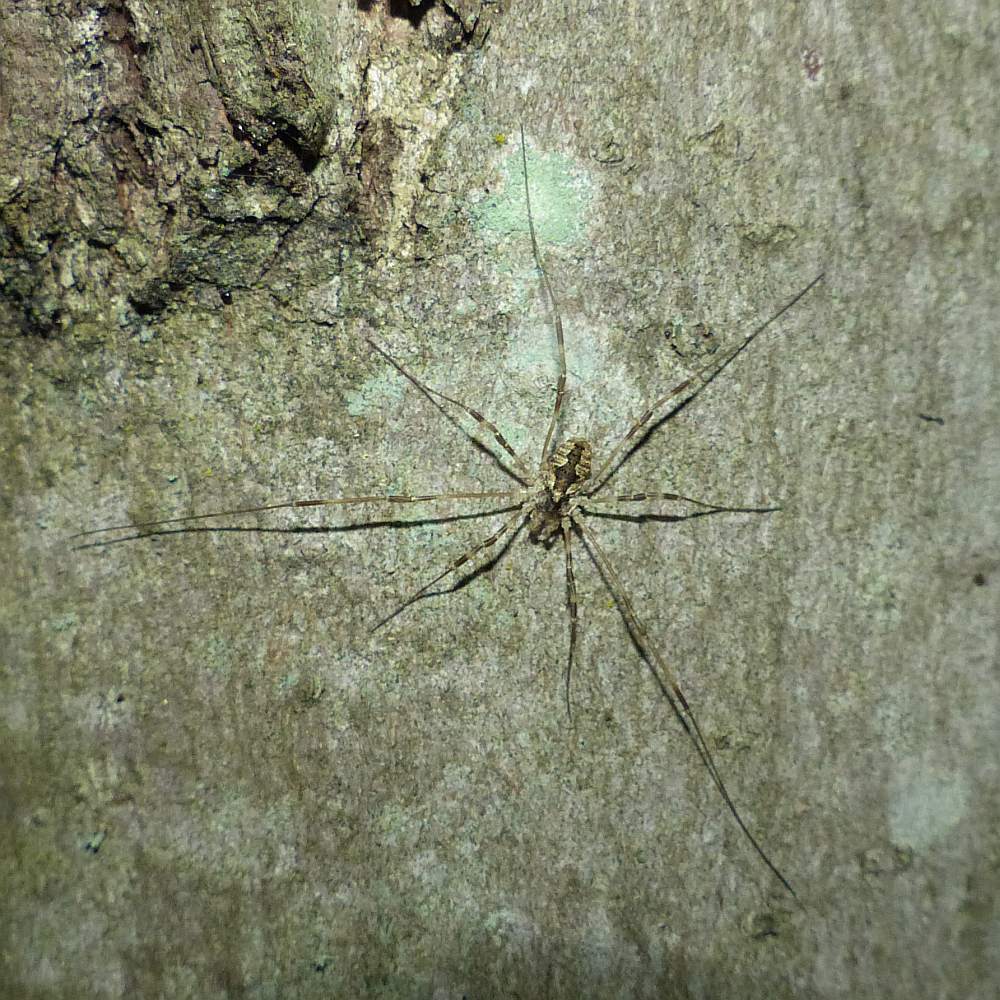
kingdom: Animalia
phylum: Arthropoda
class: Arachnida
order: Opiliones
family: Phalangiidae
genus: Odiellus
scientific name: Odiellus pictus
